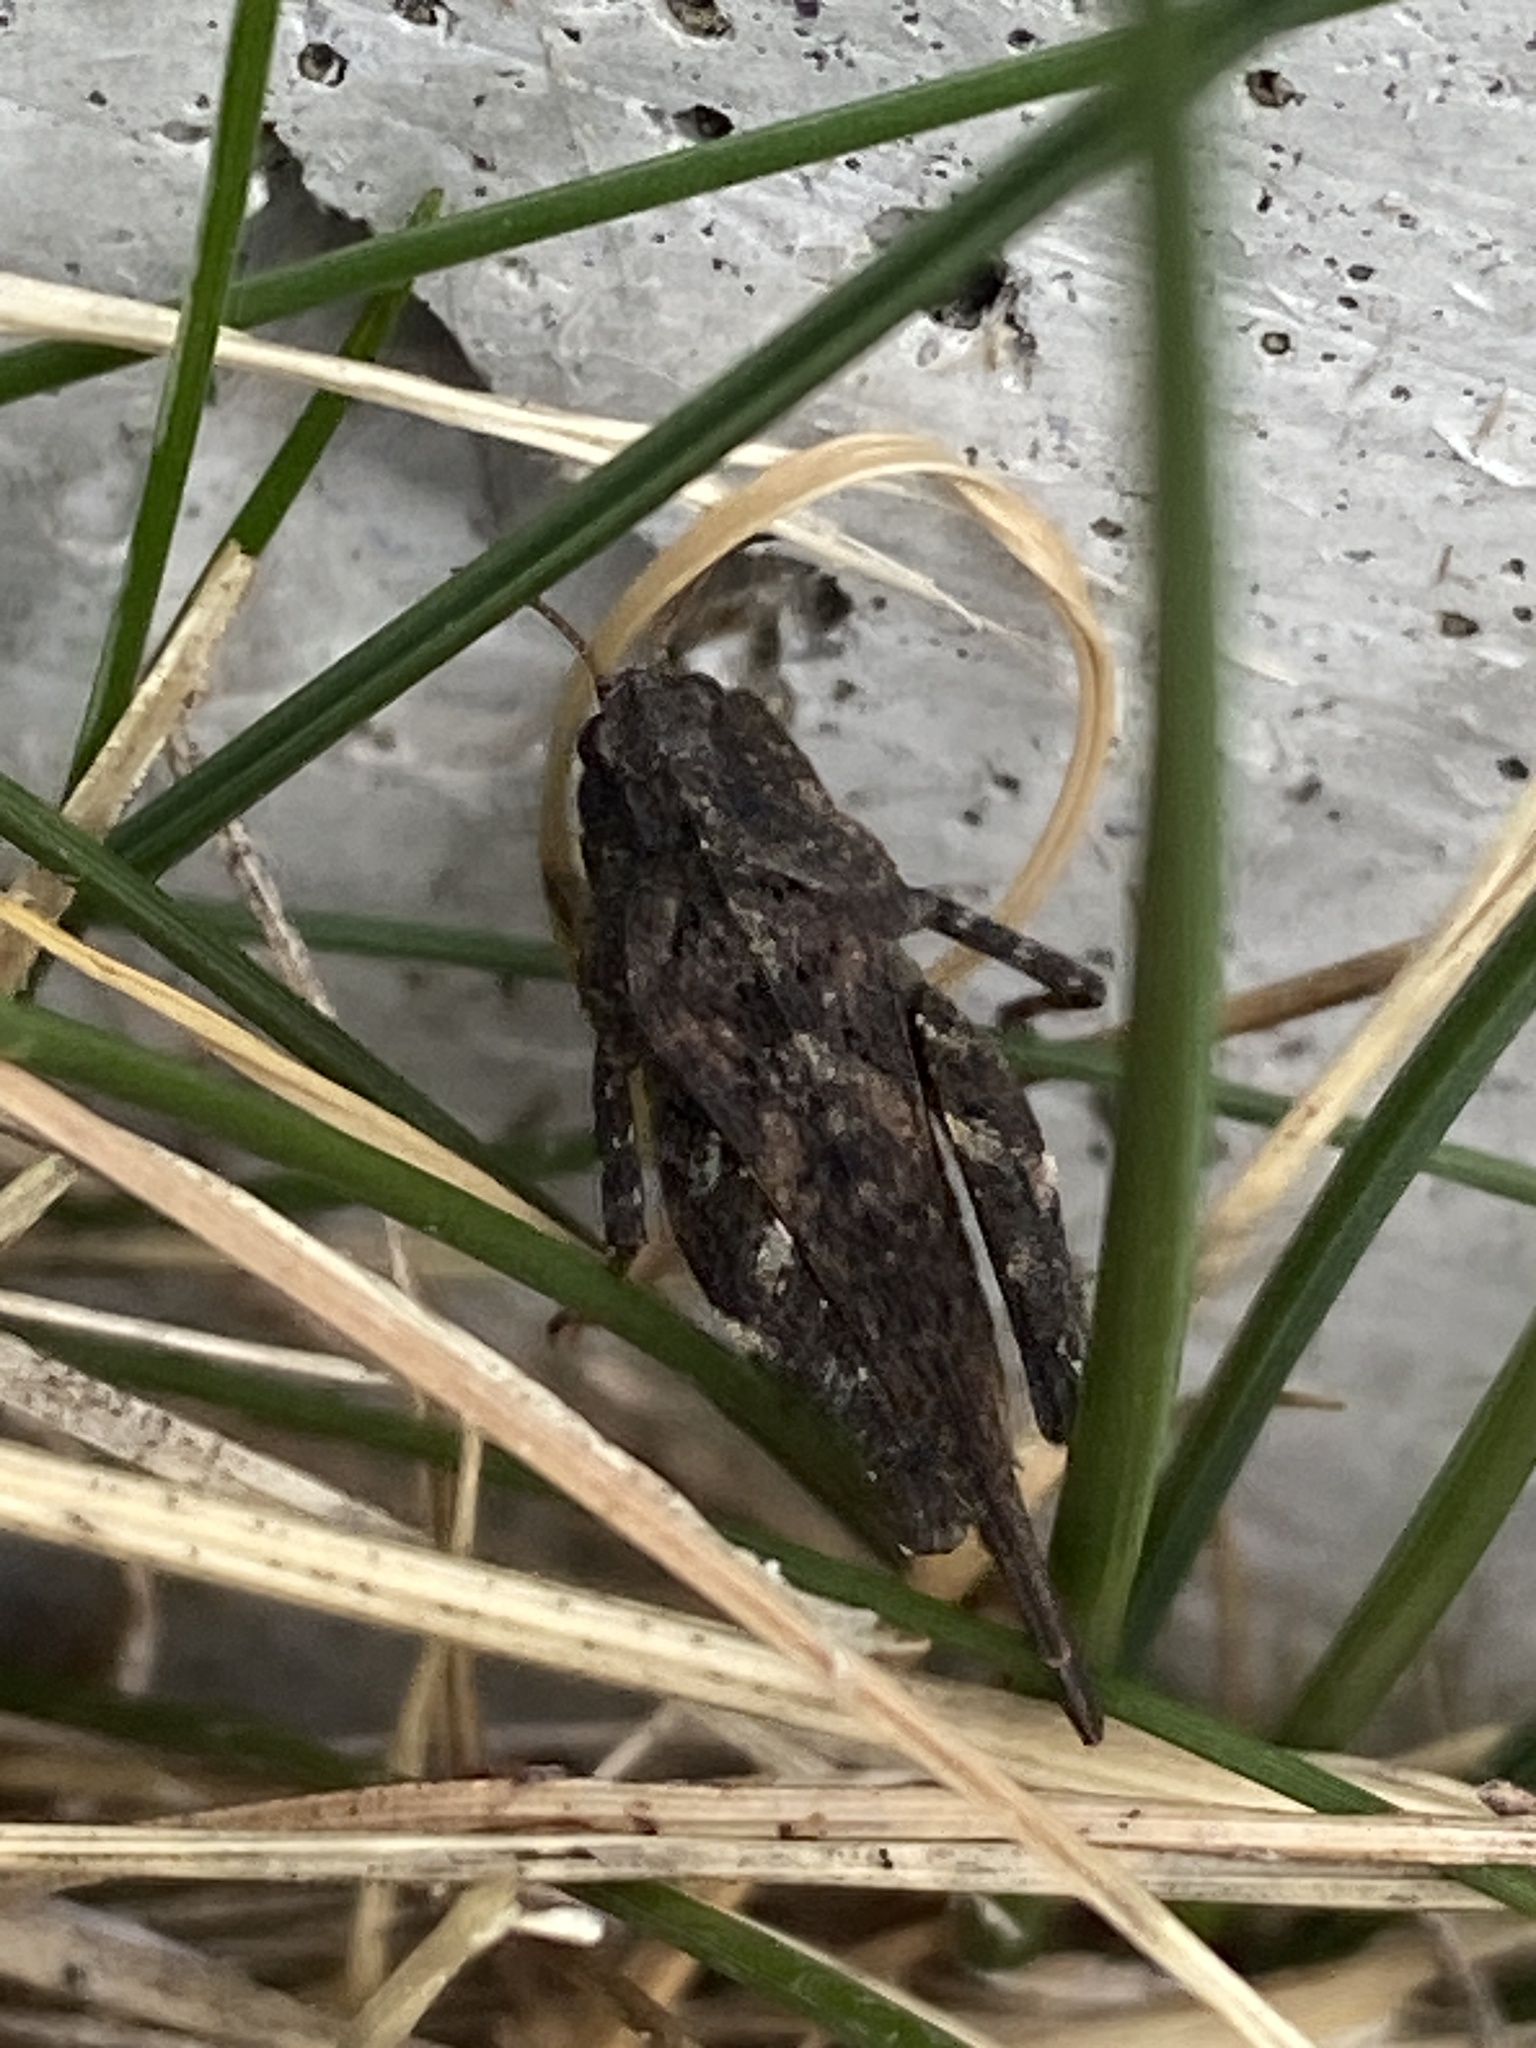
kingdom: Animalia
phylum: Arthropoda
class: Insecta
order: Orthoptera
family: Tetrigidae
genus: Tetrix
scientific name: Tetrix undulata
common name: Common groundhopper
